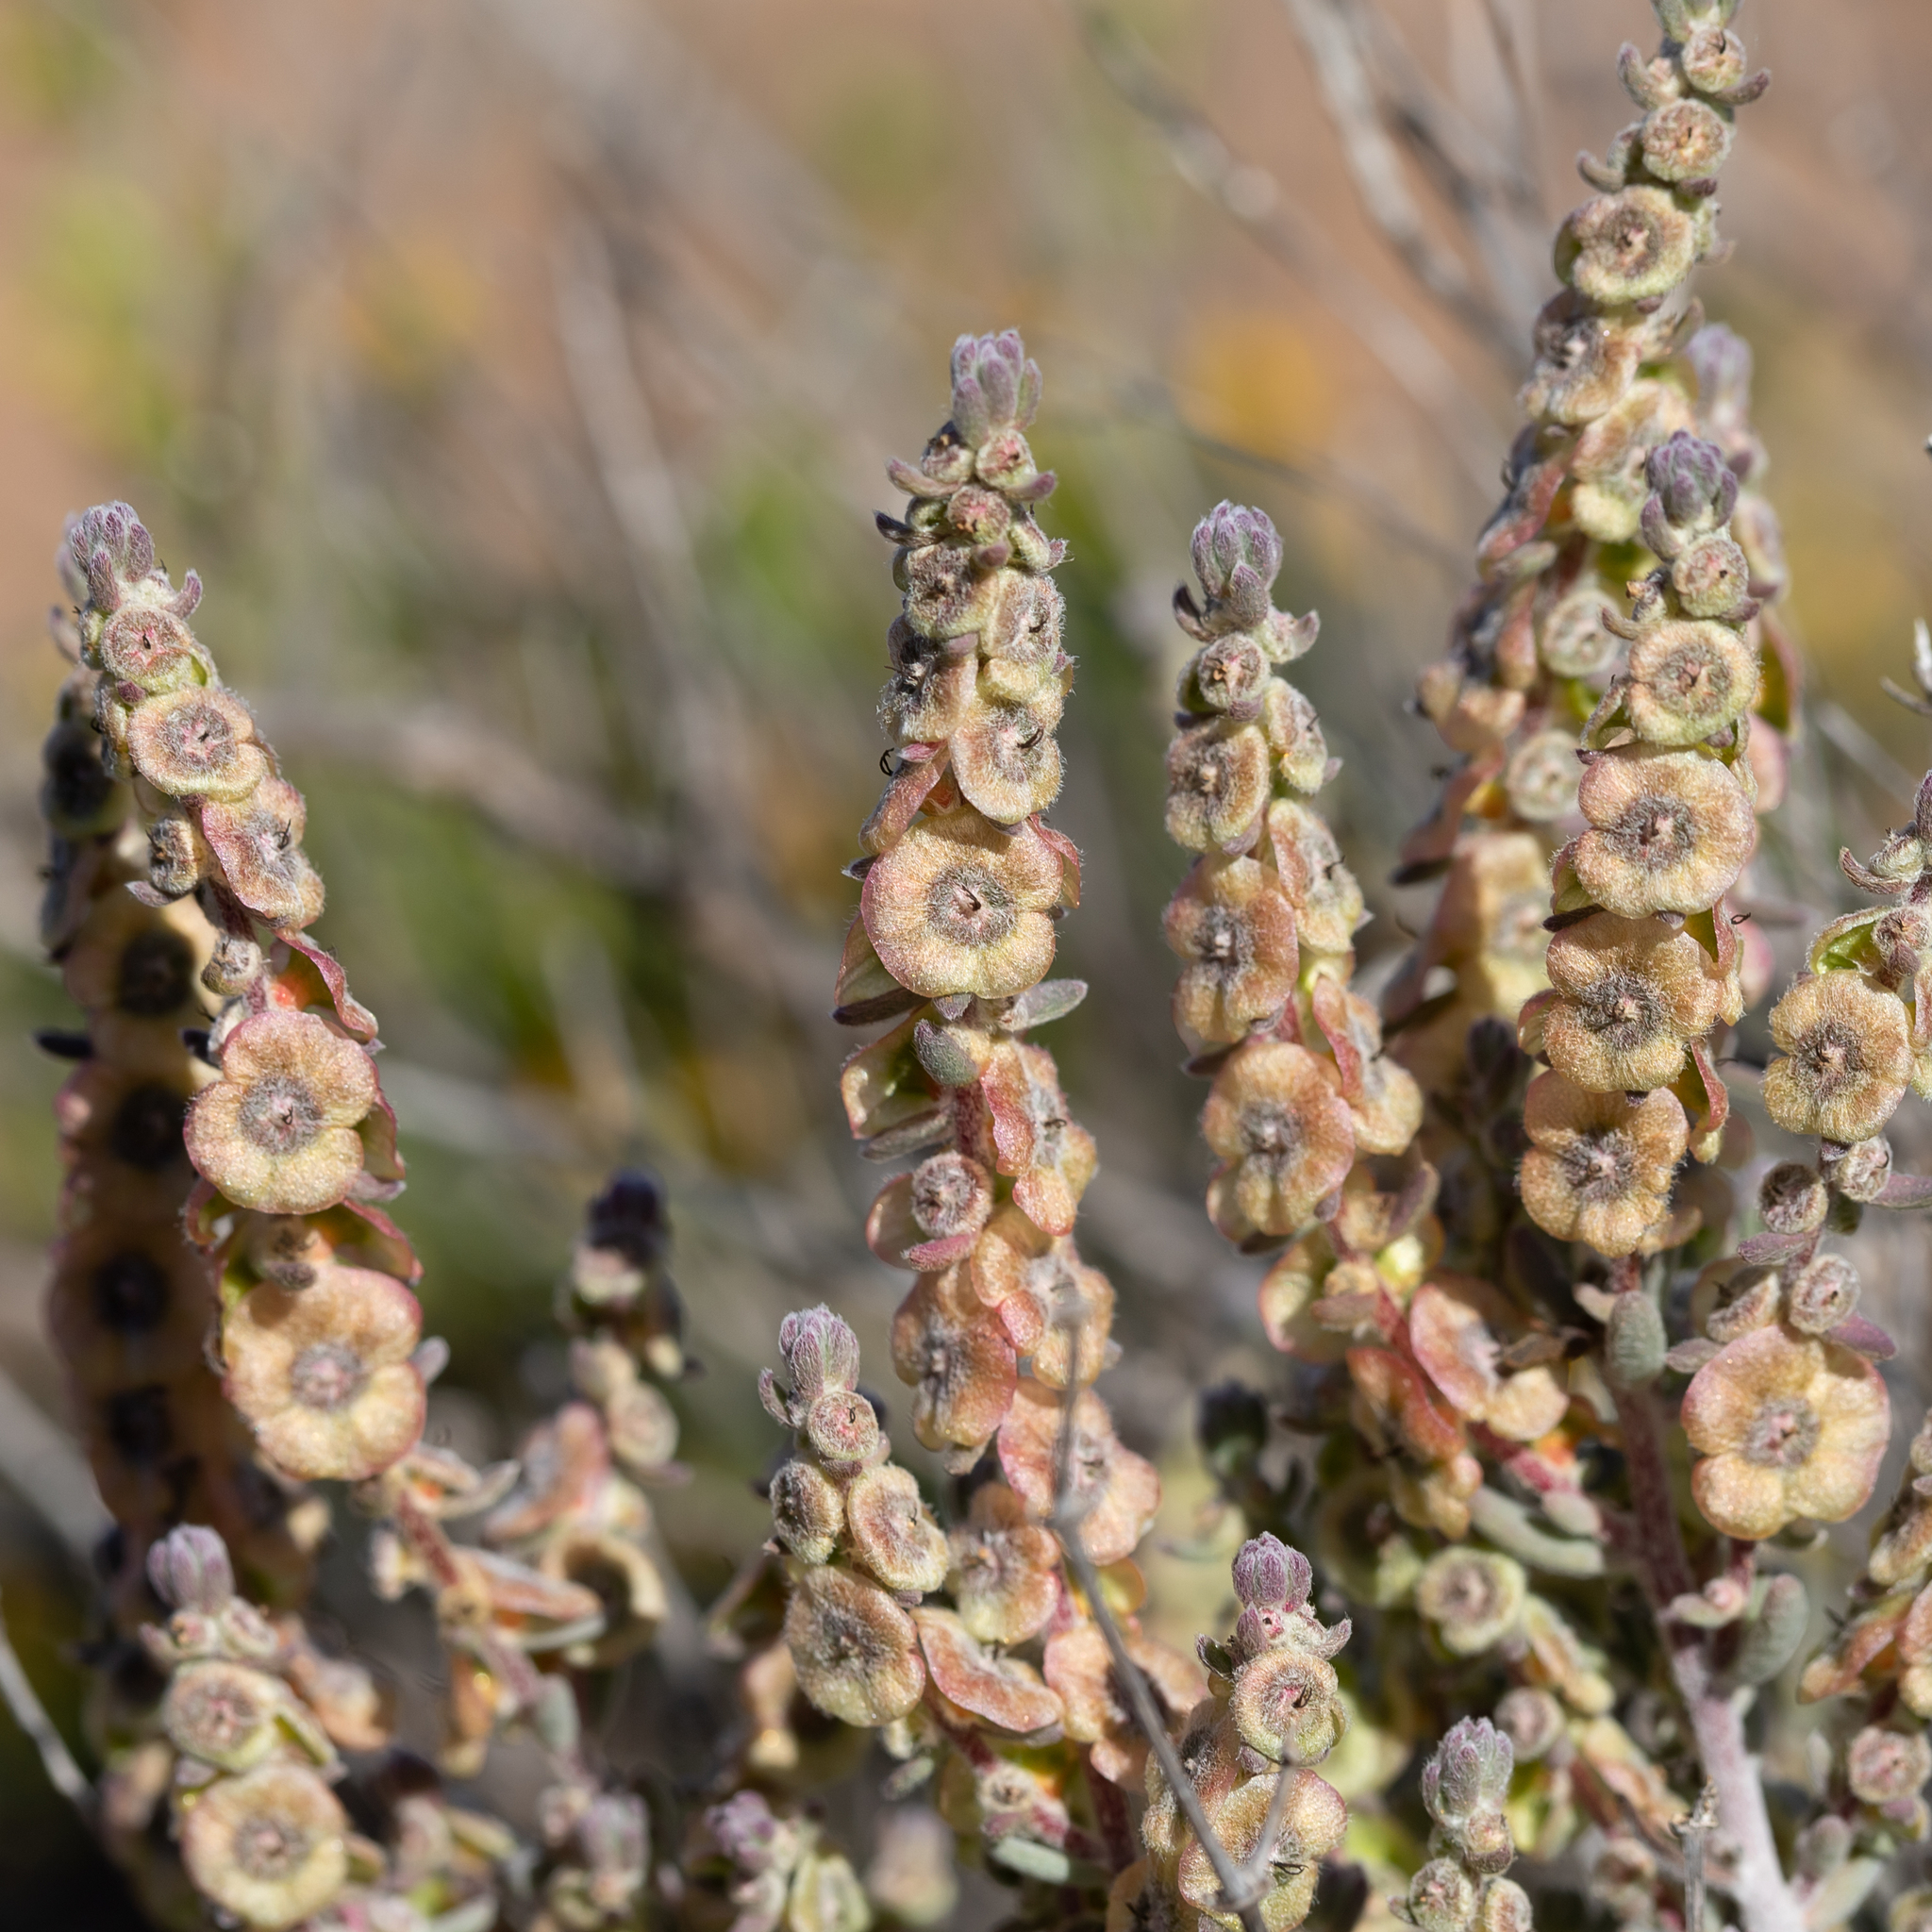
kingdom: Plantae
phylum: Tracheophyta
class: Magnoliopsida
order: Caryophyllales
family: Amaranthaceae
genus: Maireana
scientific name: Maireana trichoptera
